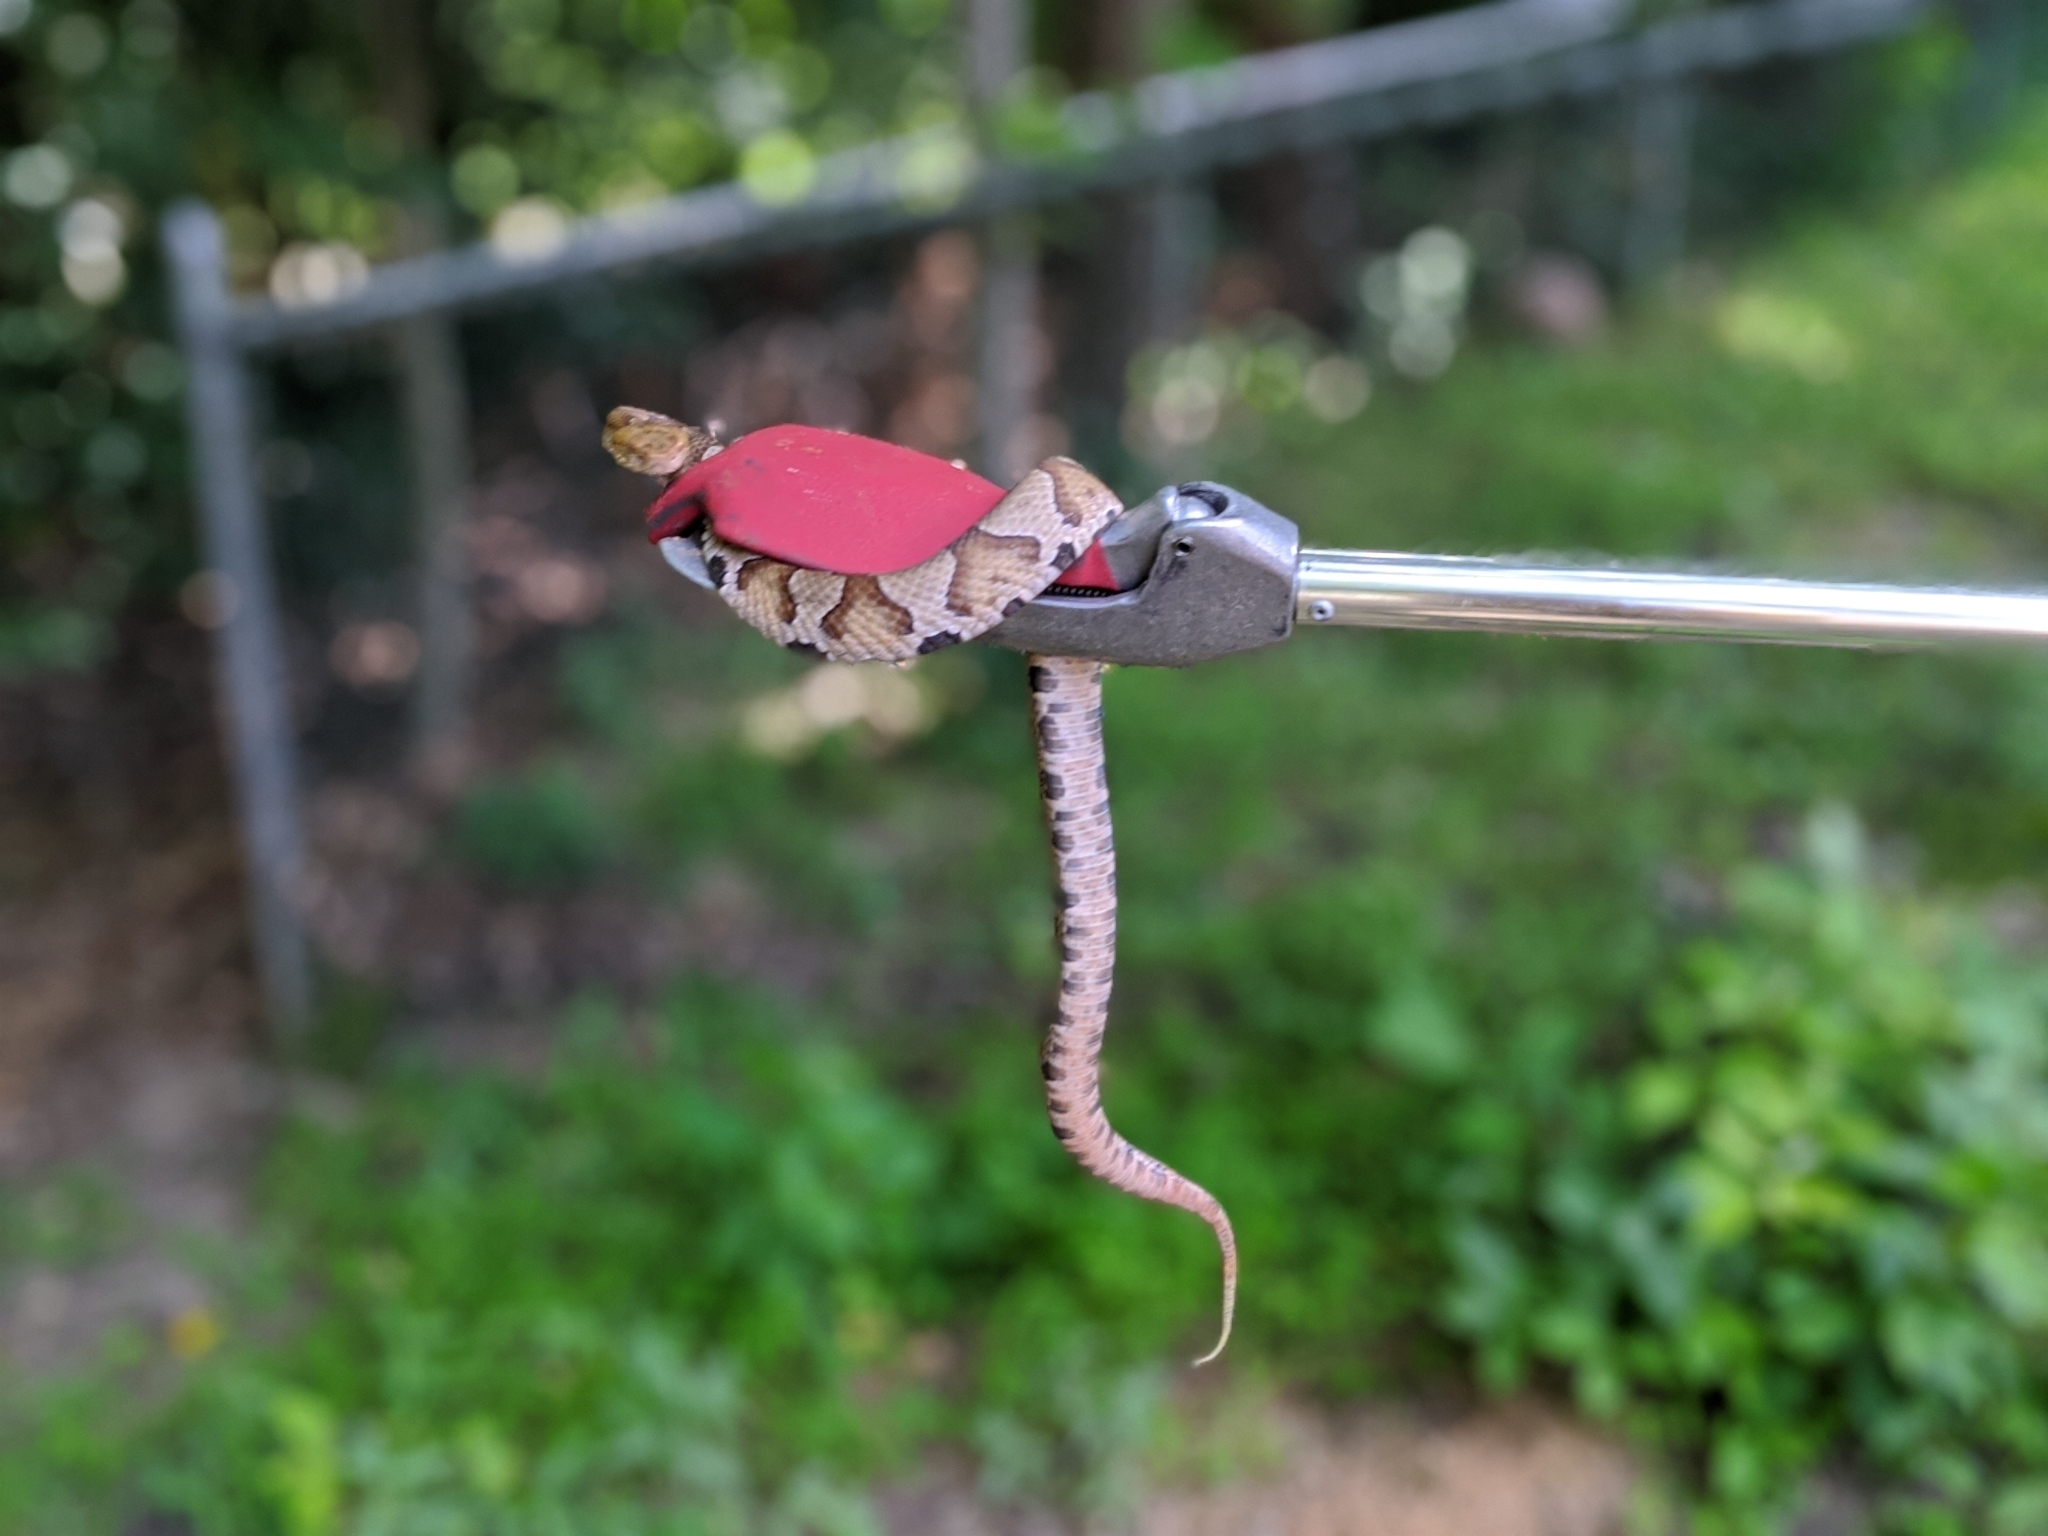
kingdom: Animalia
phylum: Chordata
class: Squamata
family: Viperidae
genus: Agkistrodon
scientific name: Agkistrodon contortrix
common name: Northern copperhead
